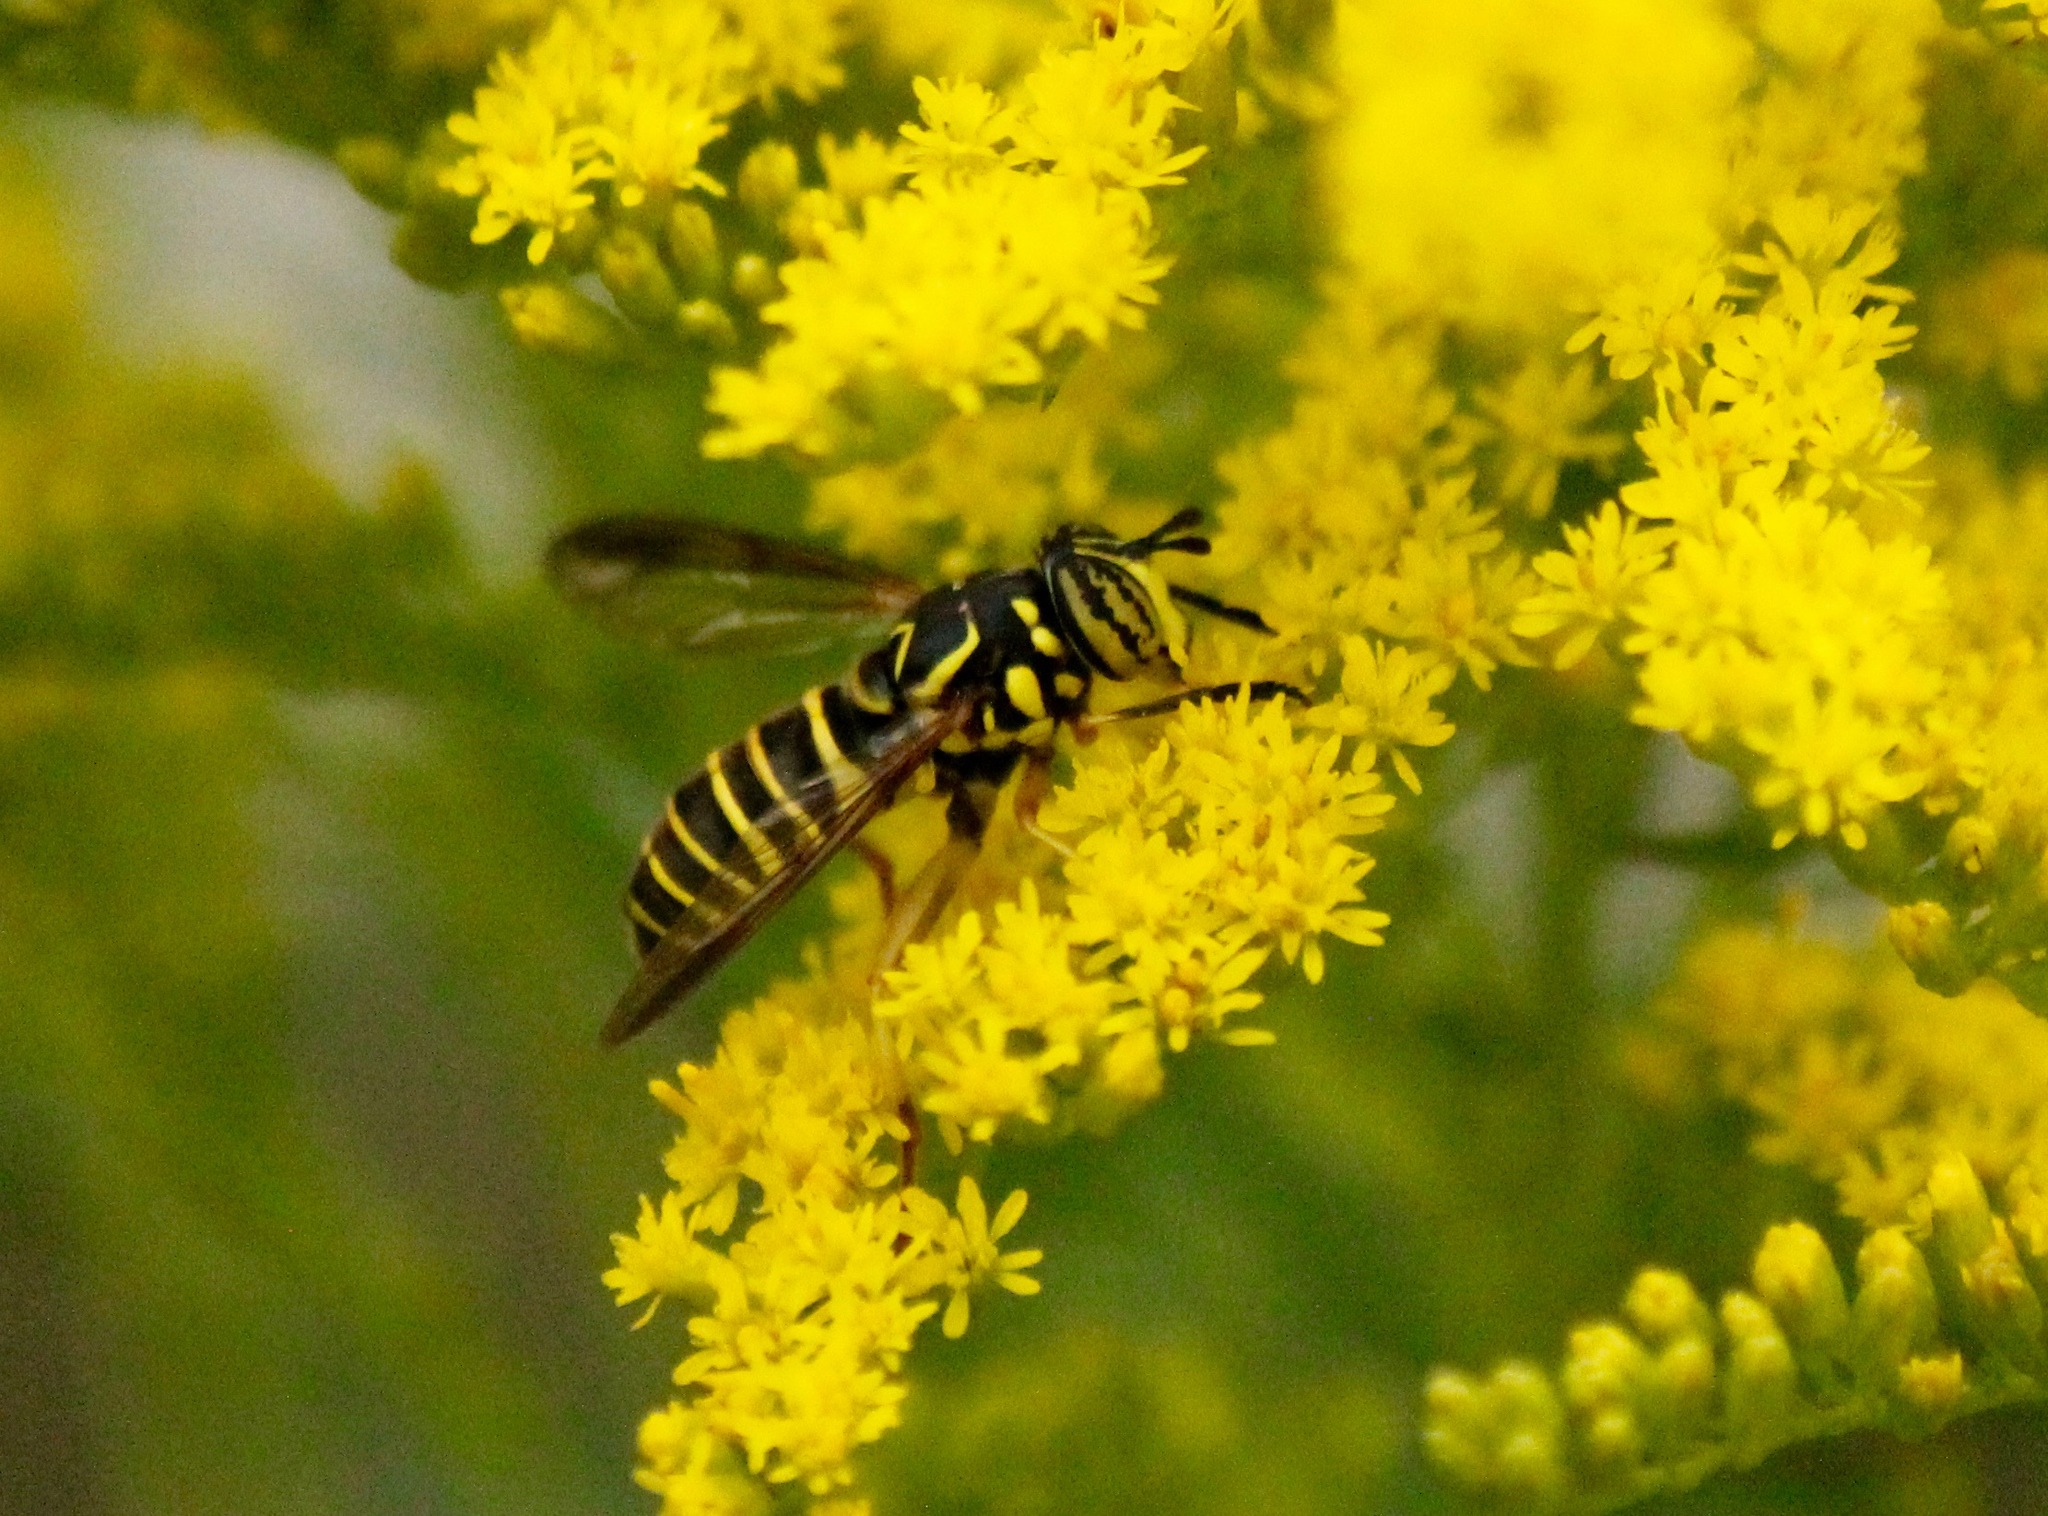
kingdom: Animalia
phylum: Arthropoda
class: Insecta
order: Diptera
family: Syrphidae
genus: Spilomyia
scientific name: Spilomyia longicornis
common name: Eastern hornet fly
